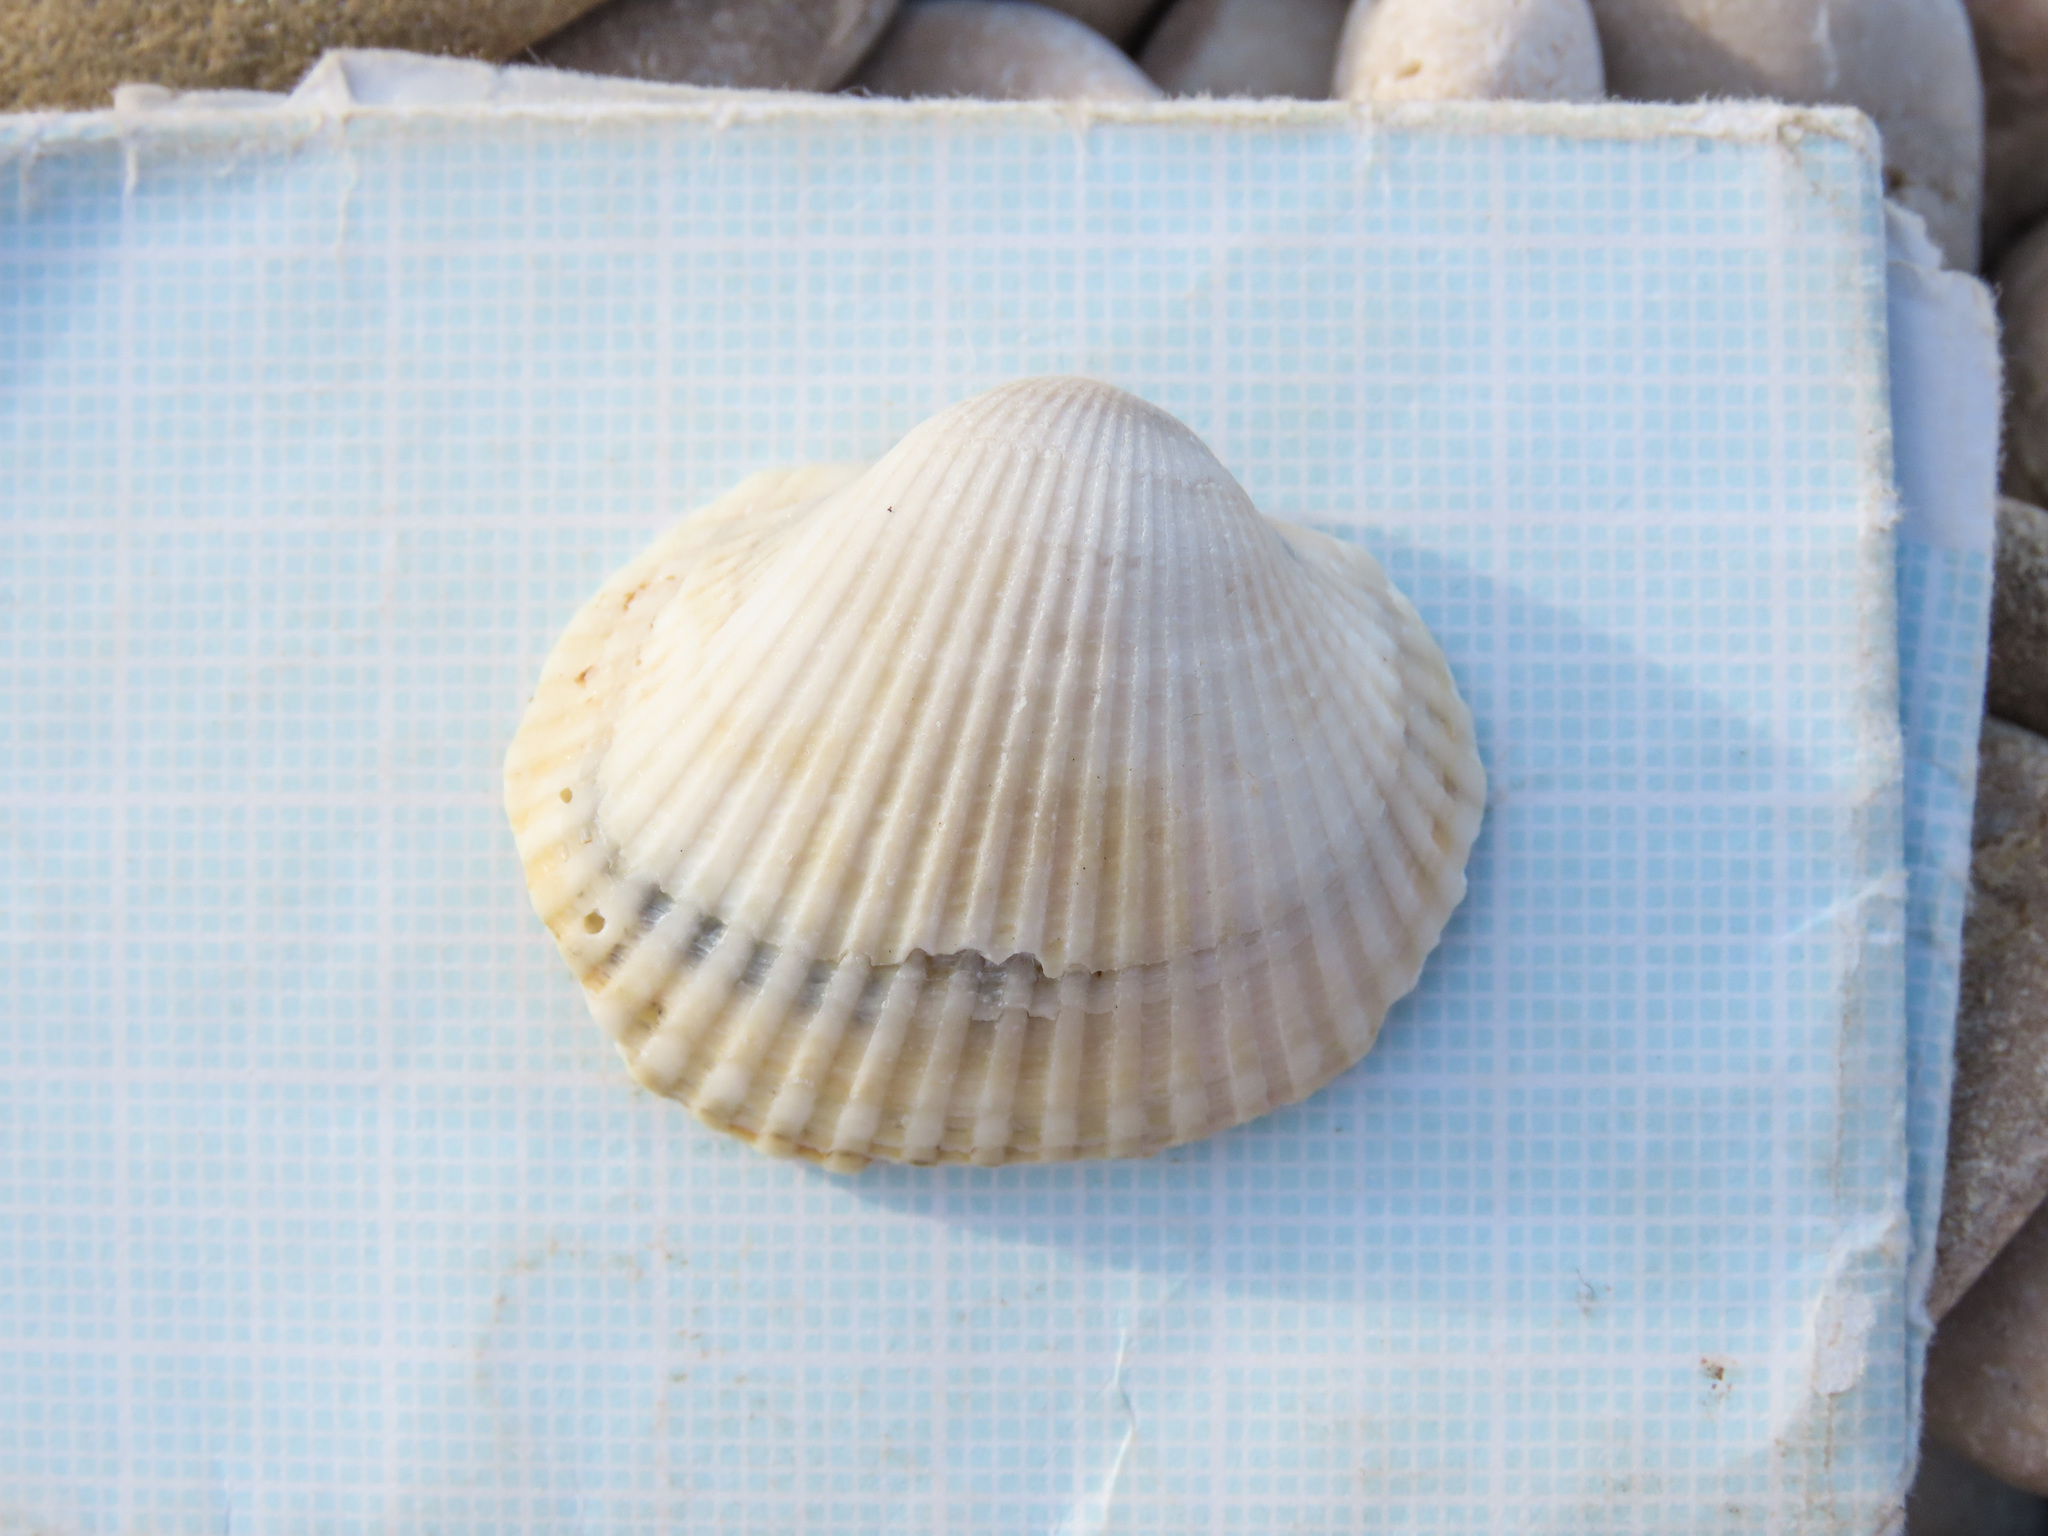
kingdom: Animalia
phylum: Mollusca
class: Bivalvia
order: Arcida
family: Arcidae
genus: Anadara
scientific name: Anadara kagoshimensis
